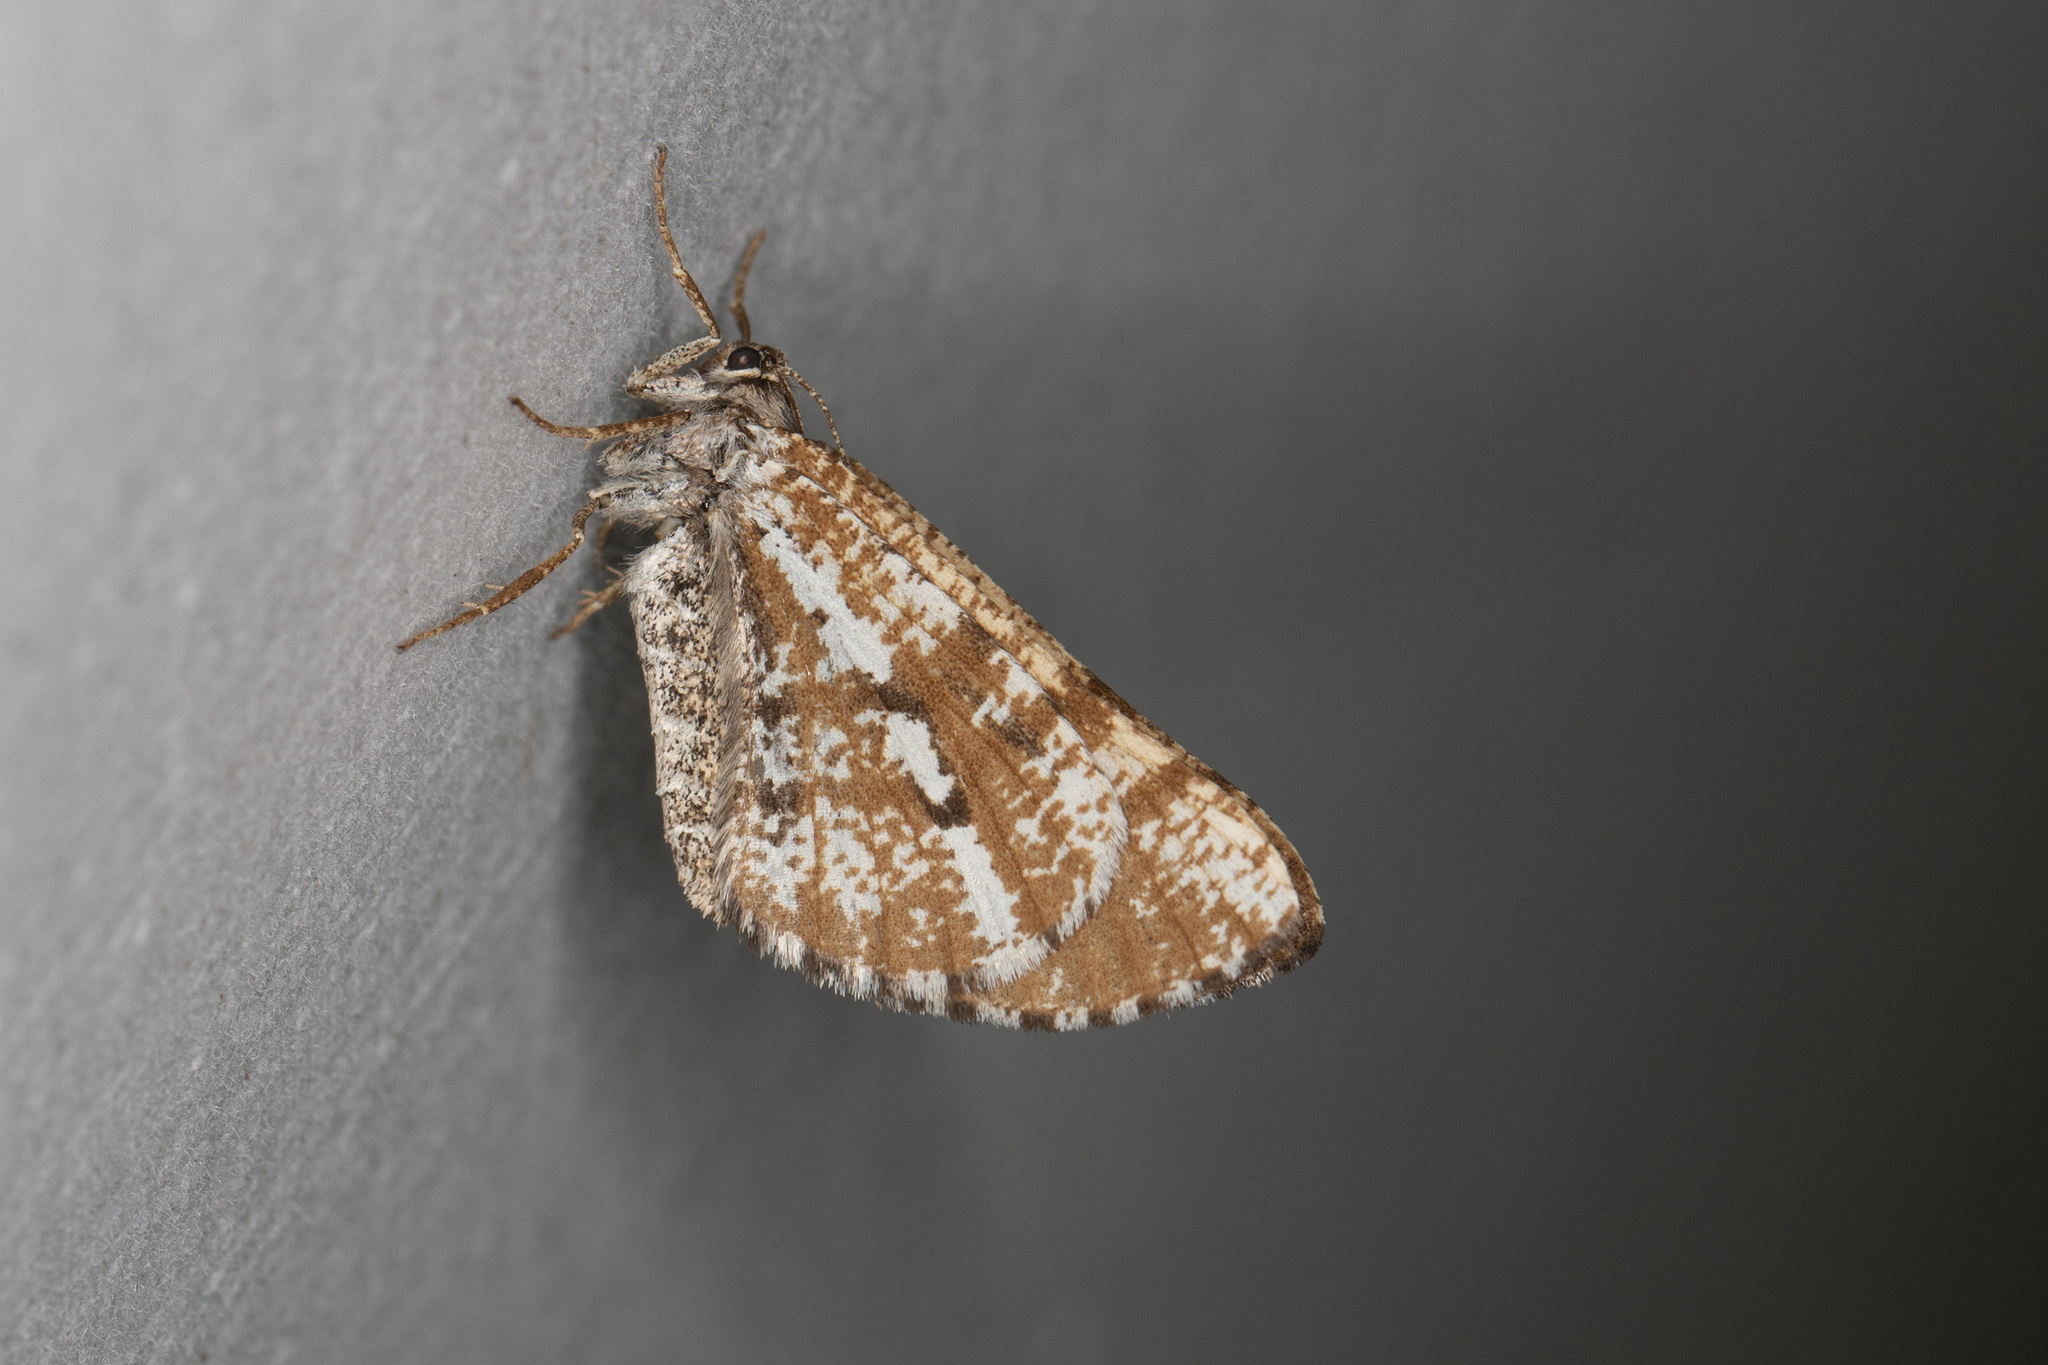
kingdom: Animalia
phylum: Arthropoda
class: Insecta
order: Lepidoptera
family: Geometridae
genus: Bupalus
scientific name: Bupalus piniaria
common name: Bordered white
